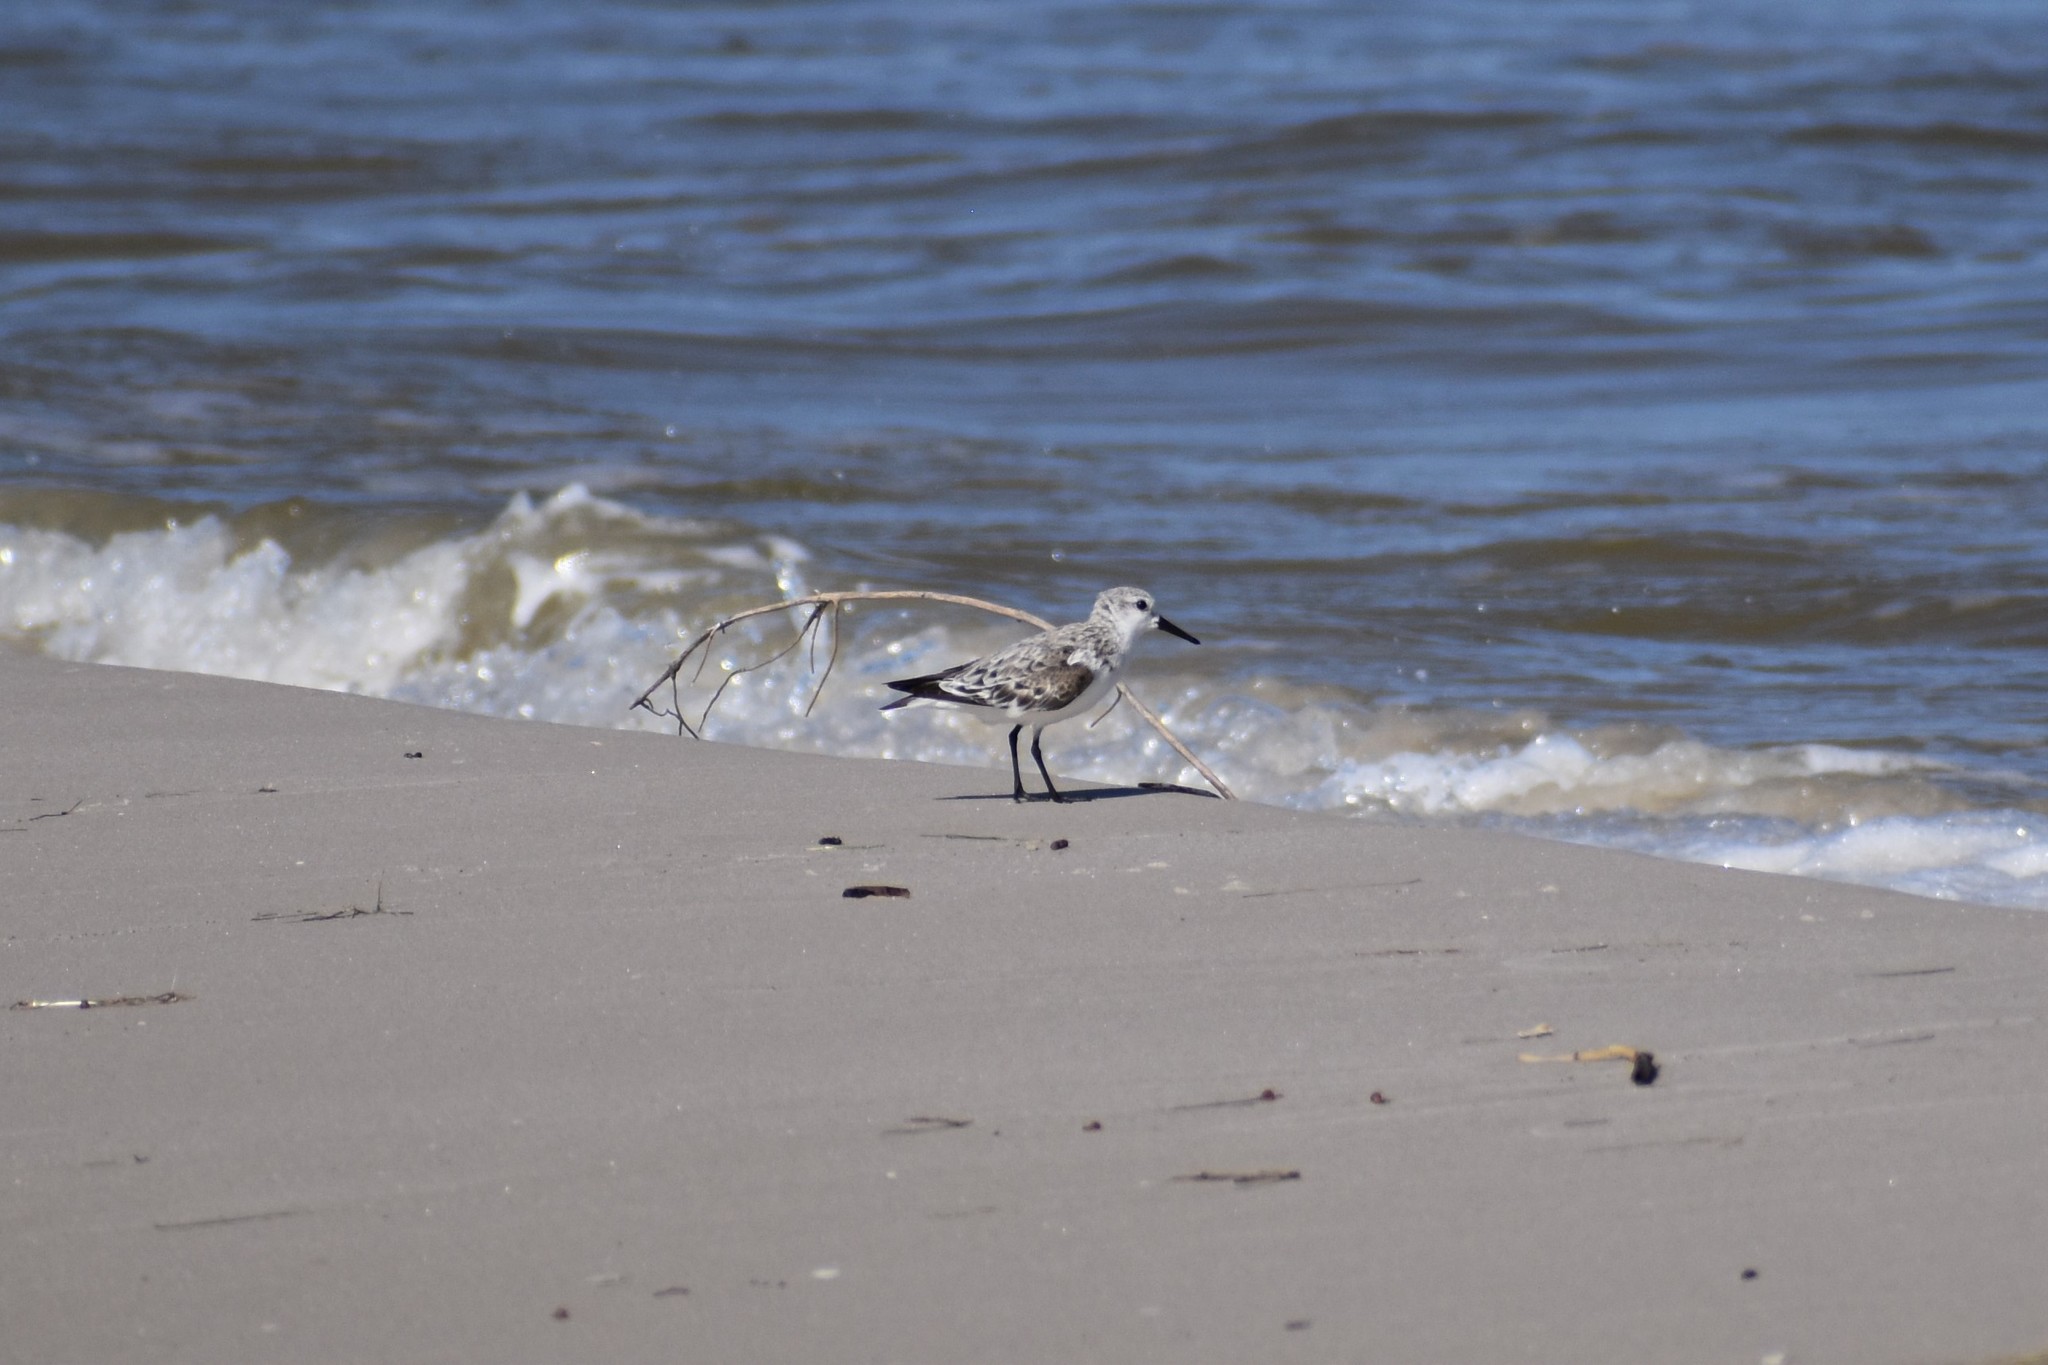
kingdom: Animalia
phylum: Chordata
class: Aves
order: Charadriiformes
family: Scolopacidae
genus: Calidris
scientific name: Calidris alba
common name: Sanderling
